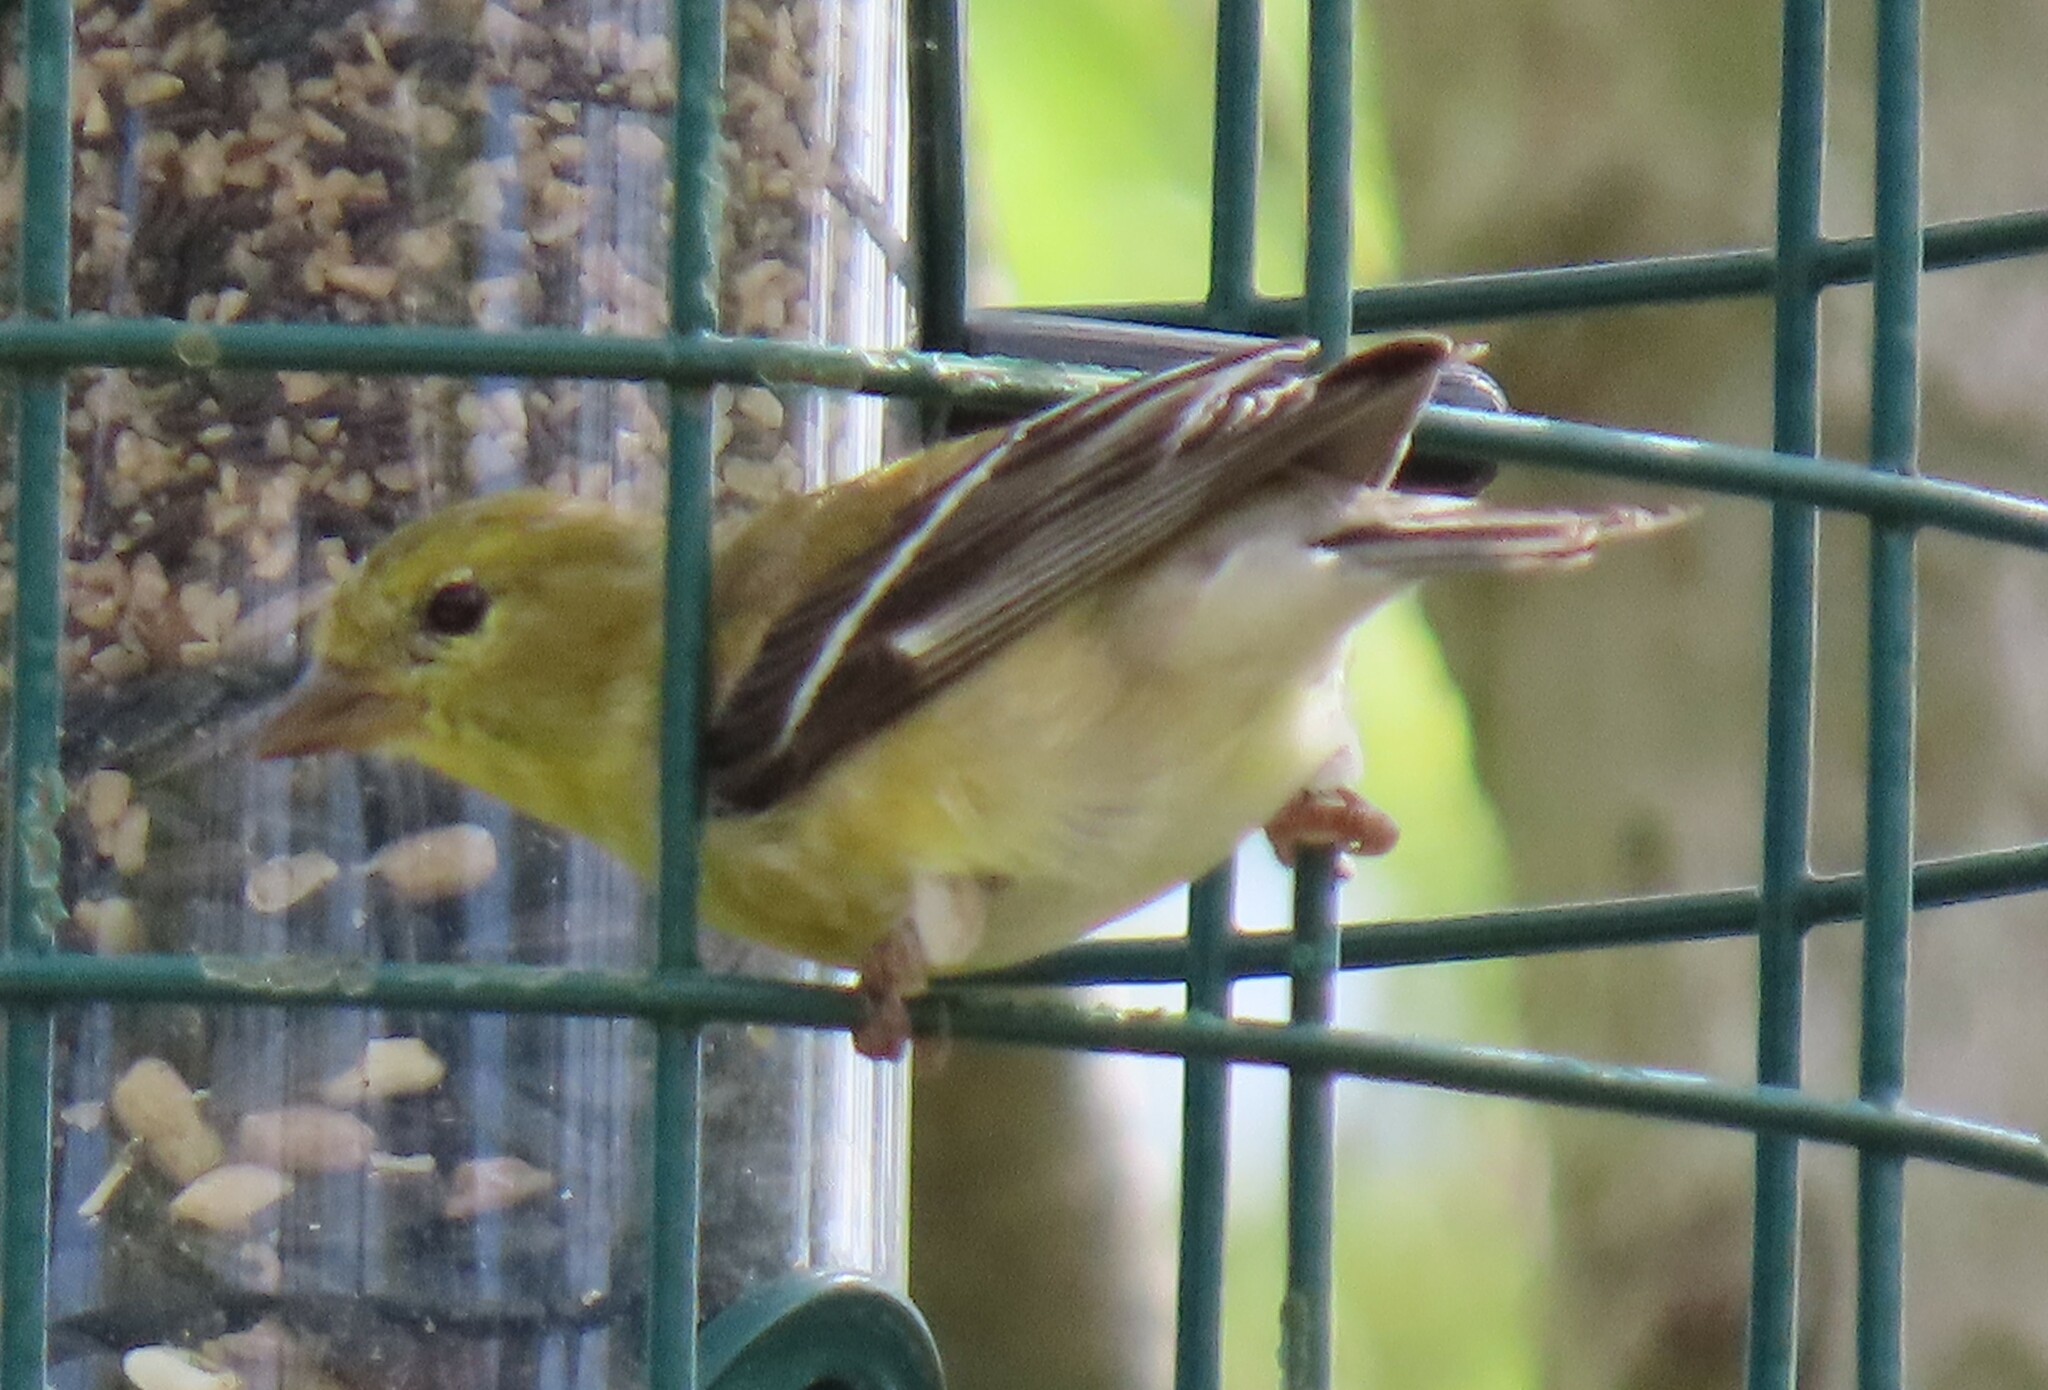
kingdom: Animalia
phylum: Chordata
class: Aves
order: Passeriformes
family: Fringillidae
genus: Spinus
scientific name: Spinus tristis
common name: American goldfinch
